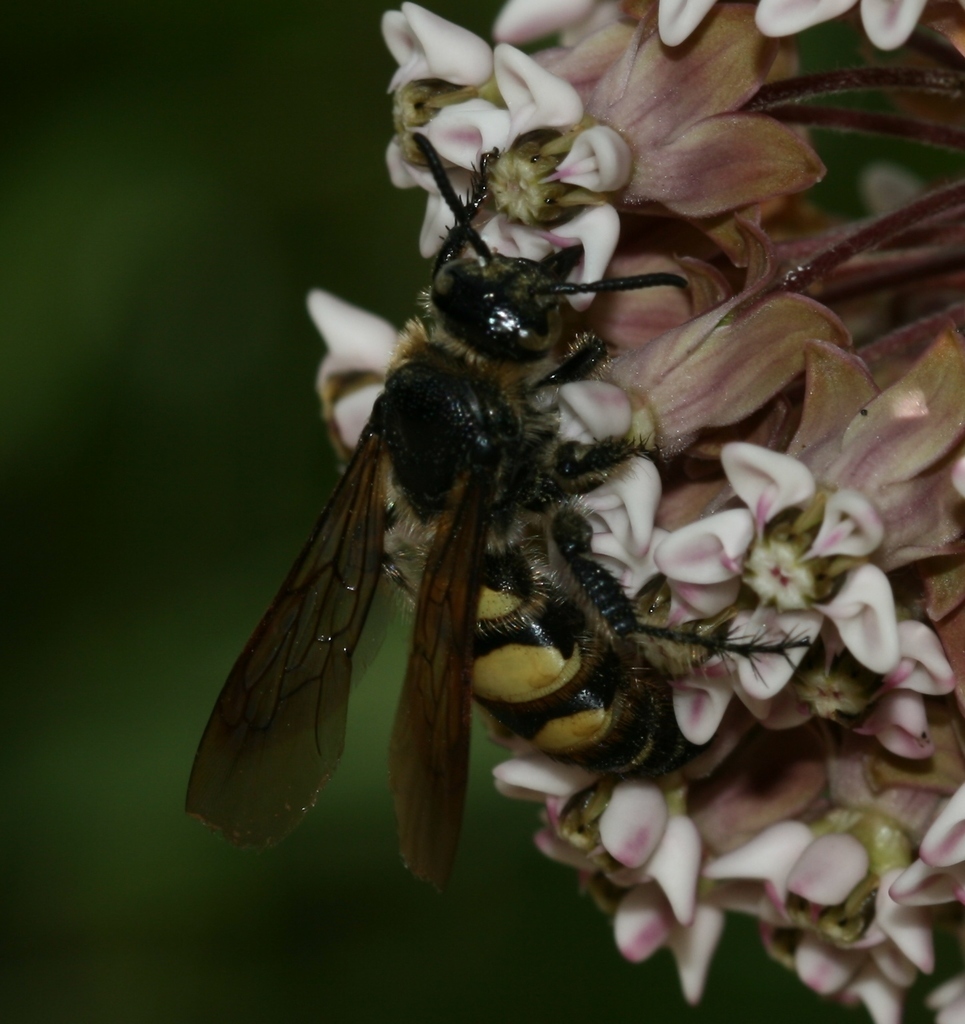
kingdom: Animalia
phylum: Arthropoda
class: Insecta
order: Hymenoptera
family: Scoliidae
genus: Dielis
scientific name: Dielis
